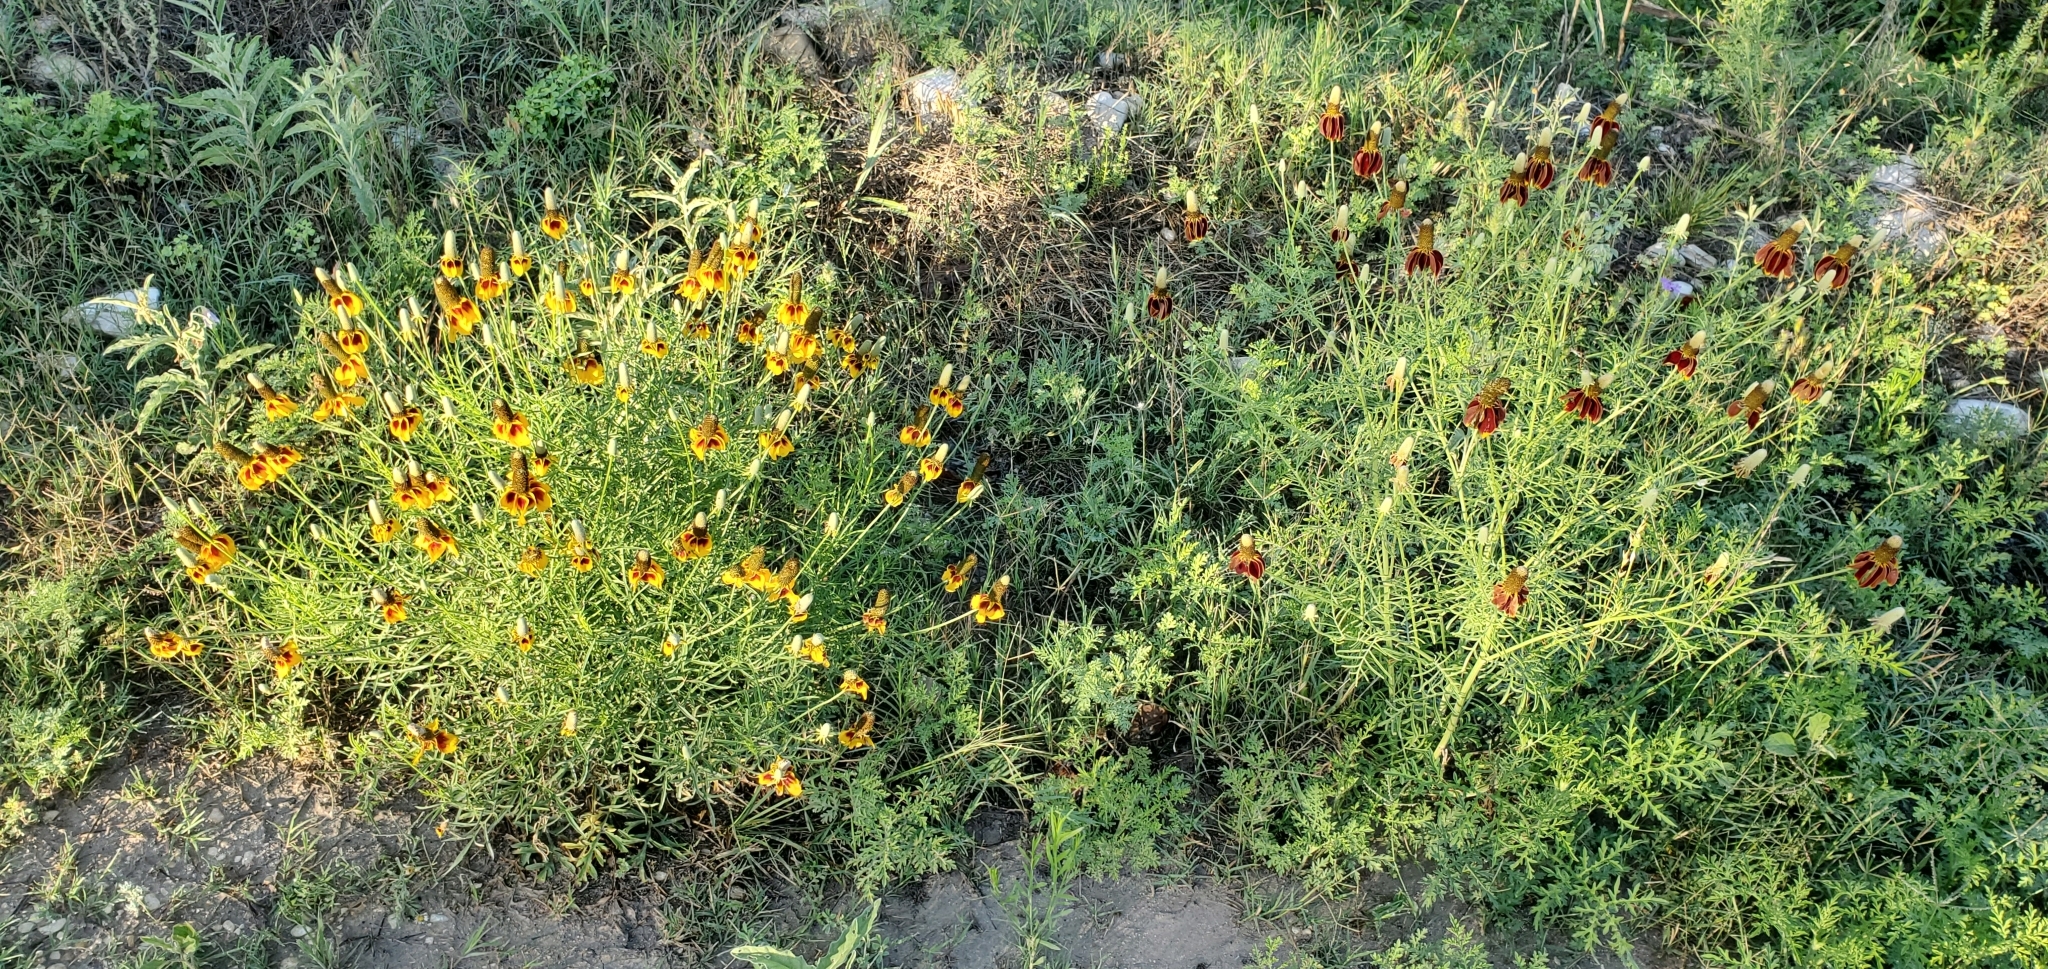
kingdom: Plantae
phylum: Tracheophyta
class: Magnoliopsida
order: Asterales
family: Asteraceae
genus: Ratibida
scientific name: Ratibida columnifera
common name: Prairie coneflower
